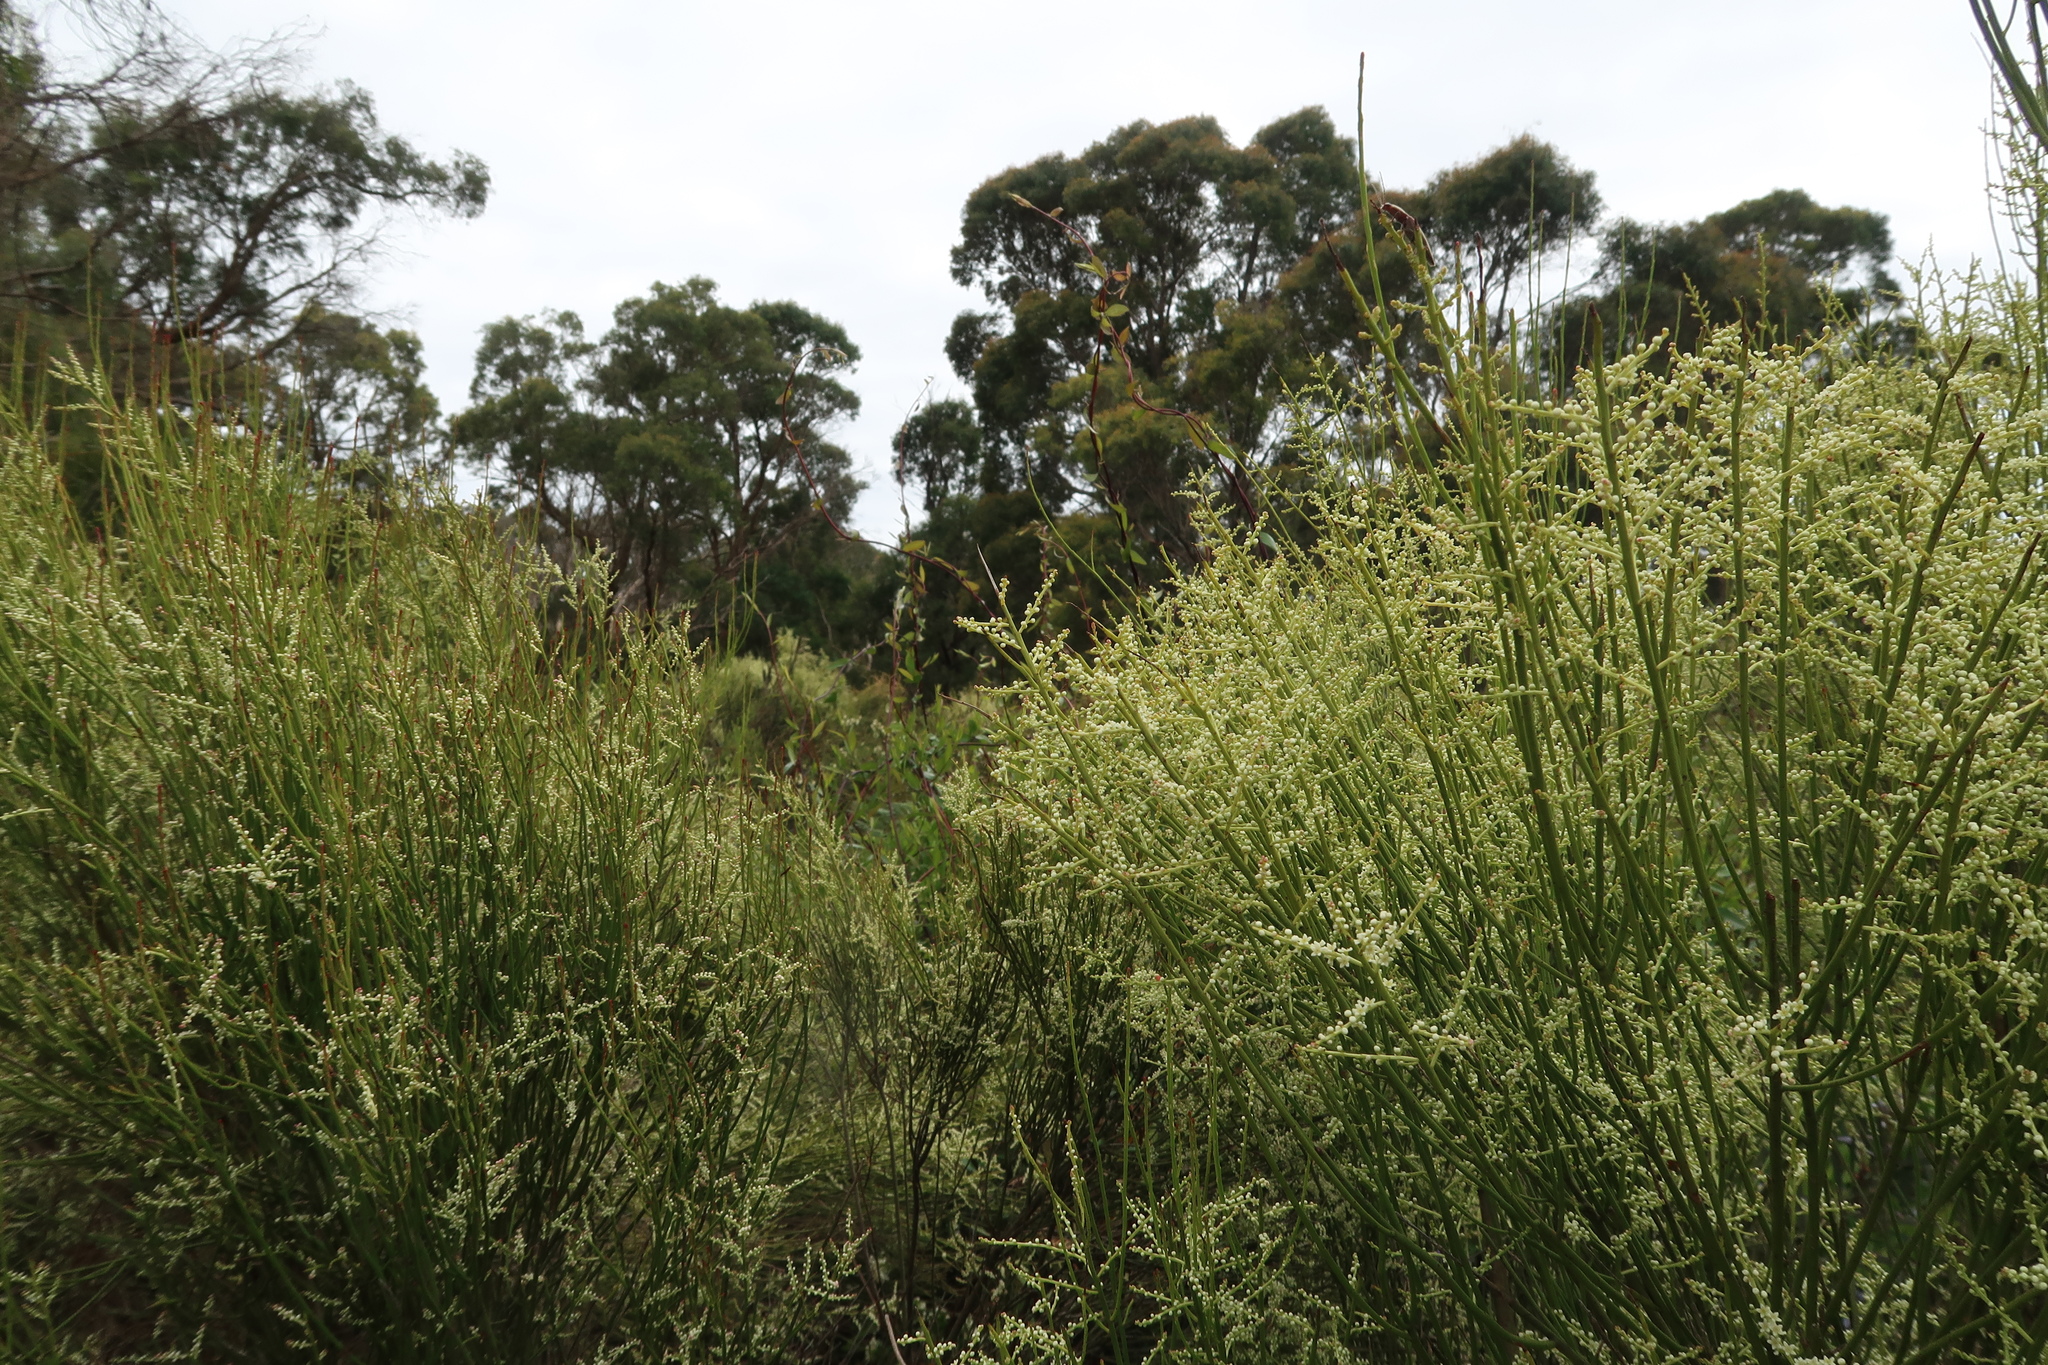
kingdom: Plantae
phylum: Tracheophyta
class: Magnoliopsida
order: Santalales
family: Amphorogynaceae
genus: Leptomeria
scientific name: Leptomeria drupacea
